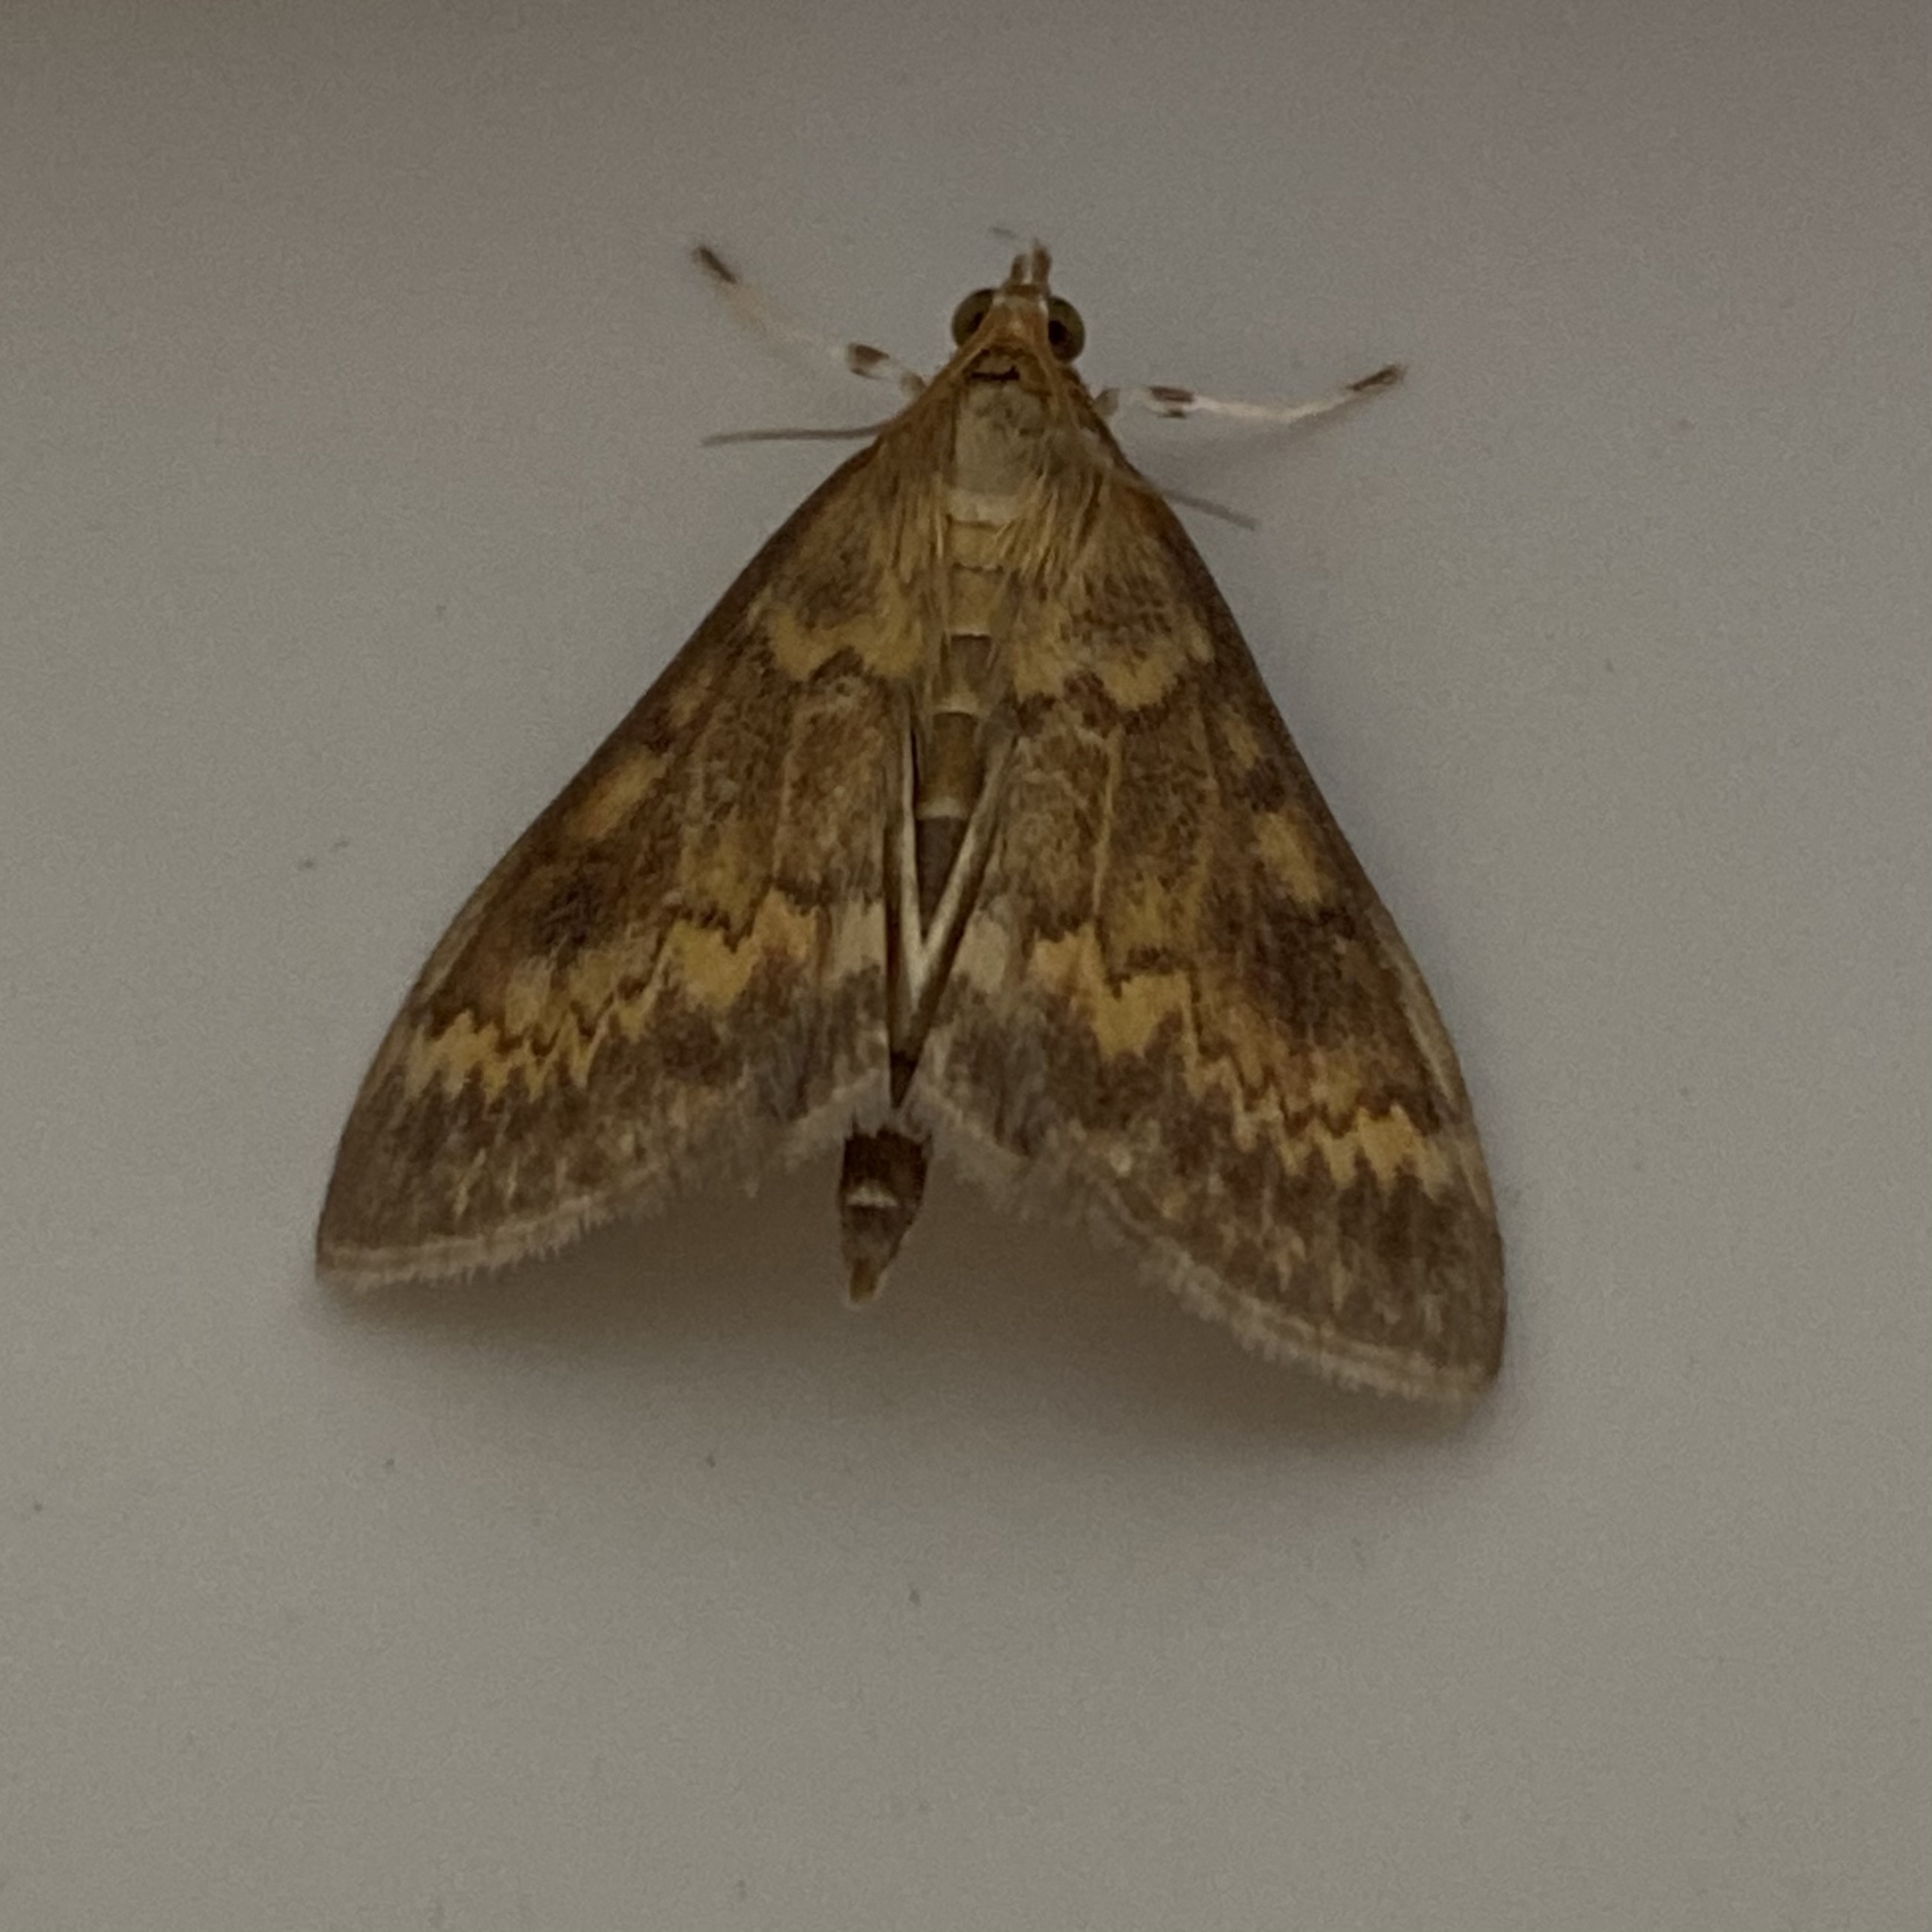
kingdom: Animalia
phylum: Arthropoda
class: Insecta
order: Lepidoptera
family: Crambidae
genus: Ostrinia
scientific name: Ostrinia nubilalis
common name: European corn borer
